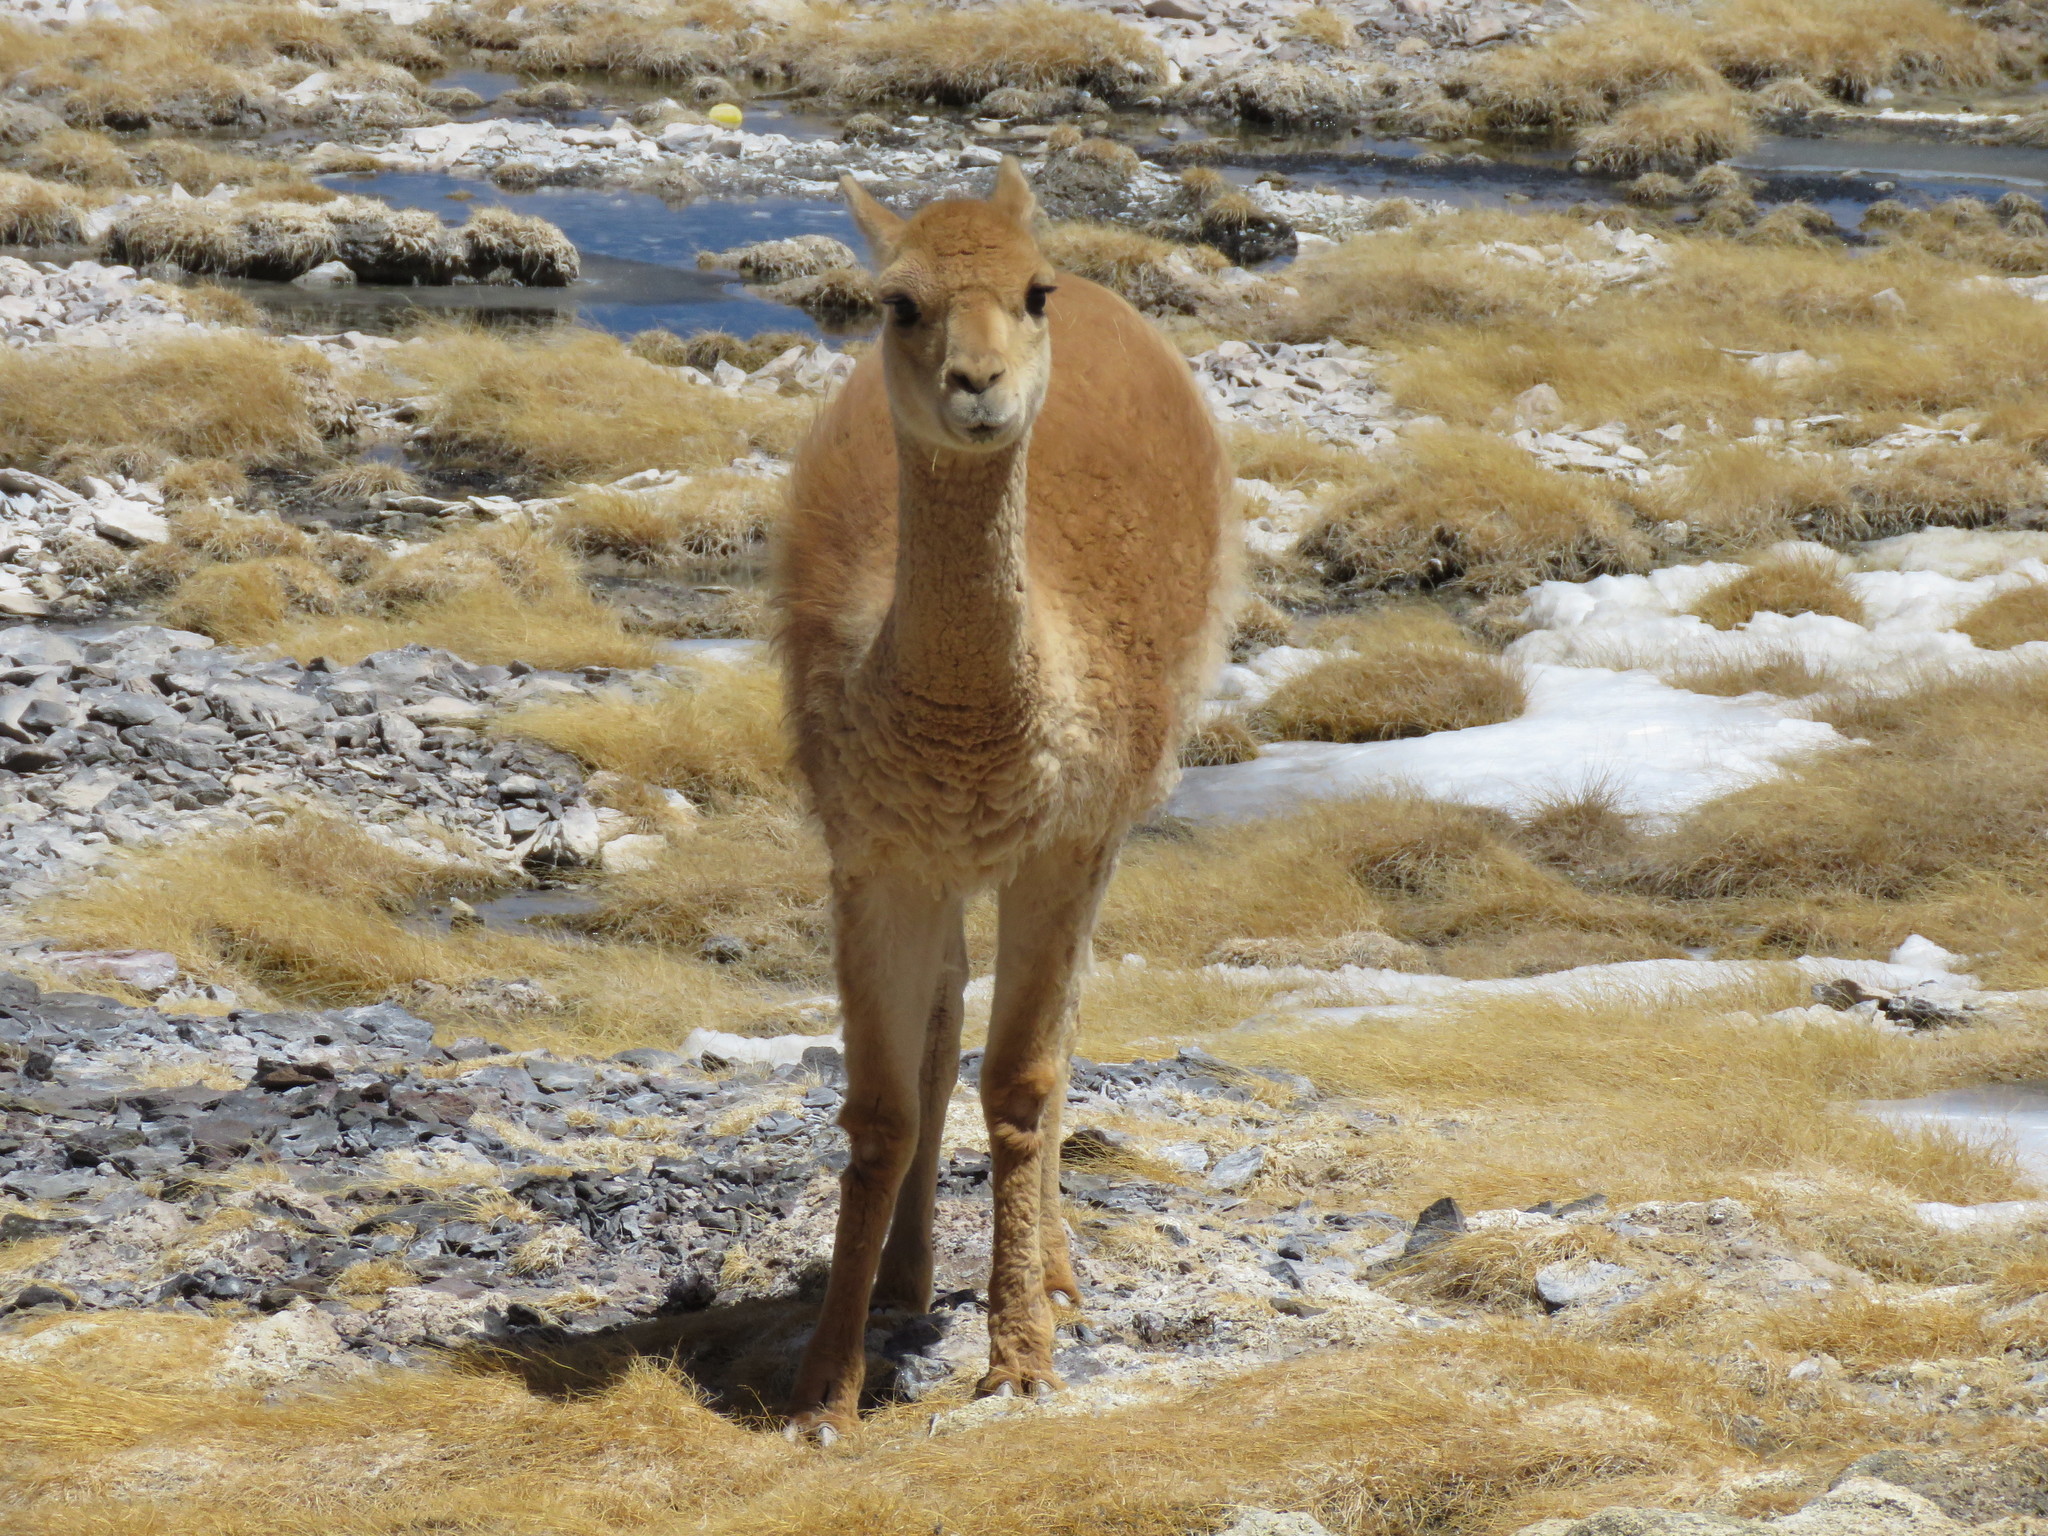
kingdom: Animalia
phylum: Chordata
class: Mammalia
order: Artiodactyla
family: Camelidae
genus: Vicugna
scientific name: Vicugna vicugna
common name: Vicugna
